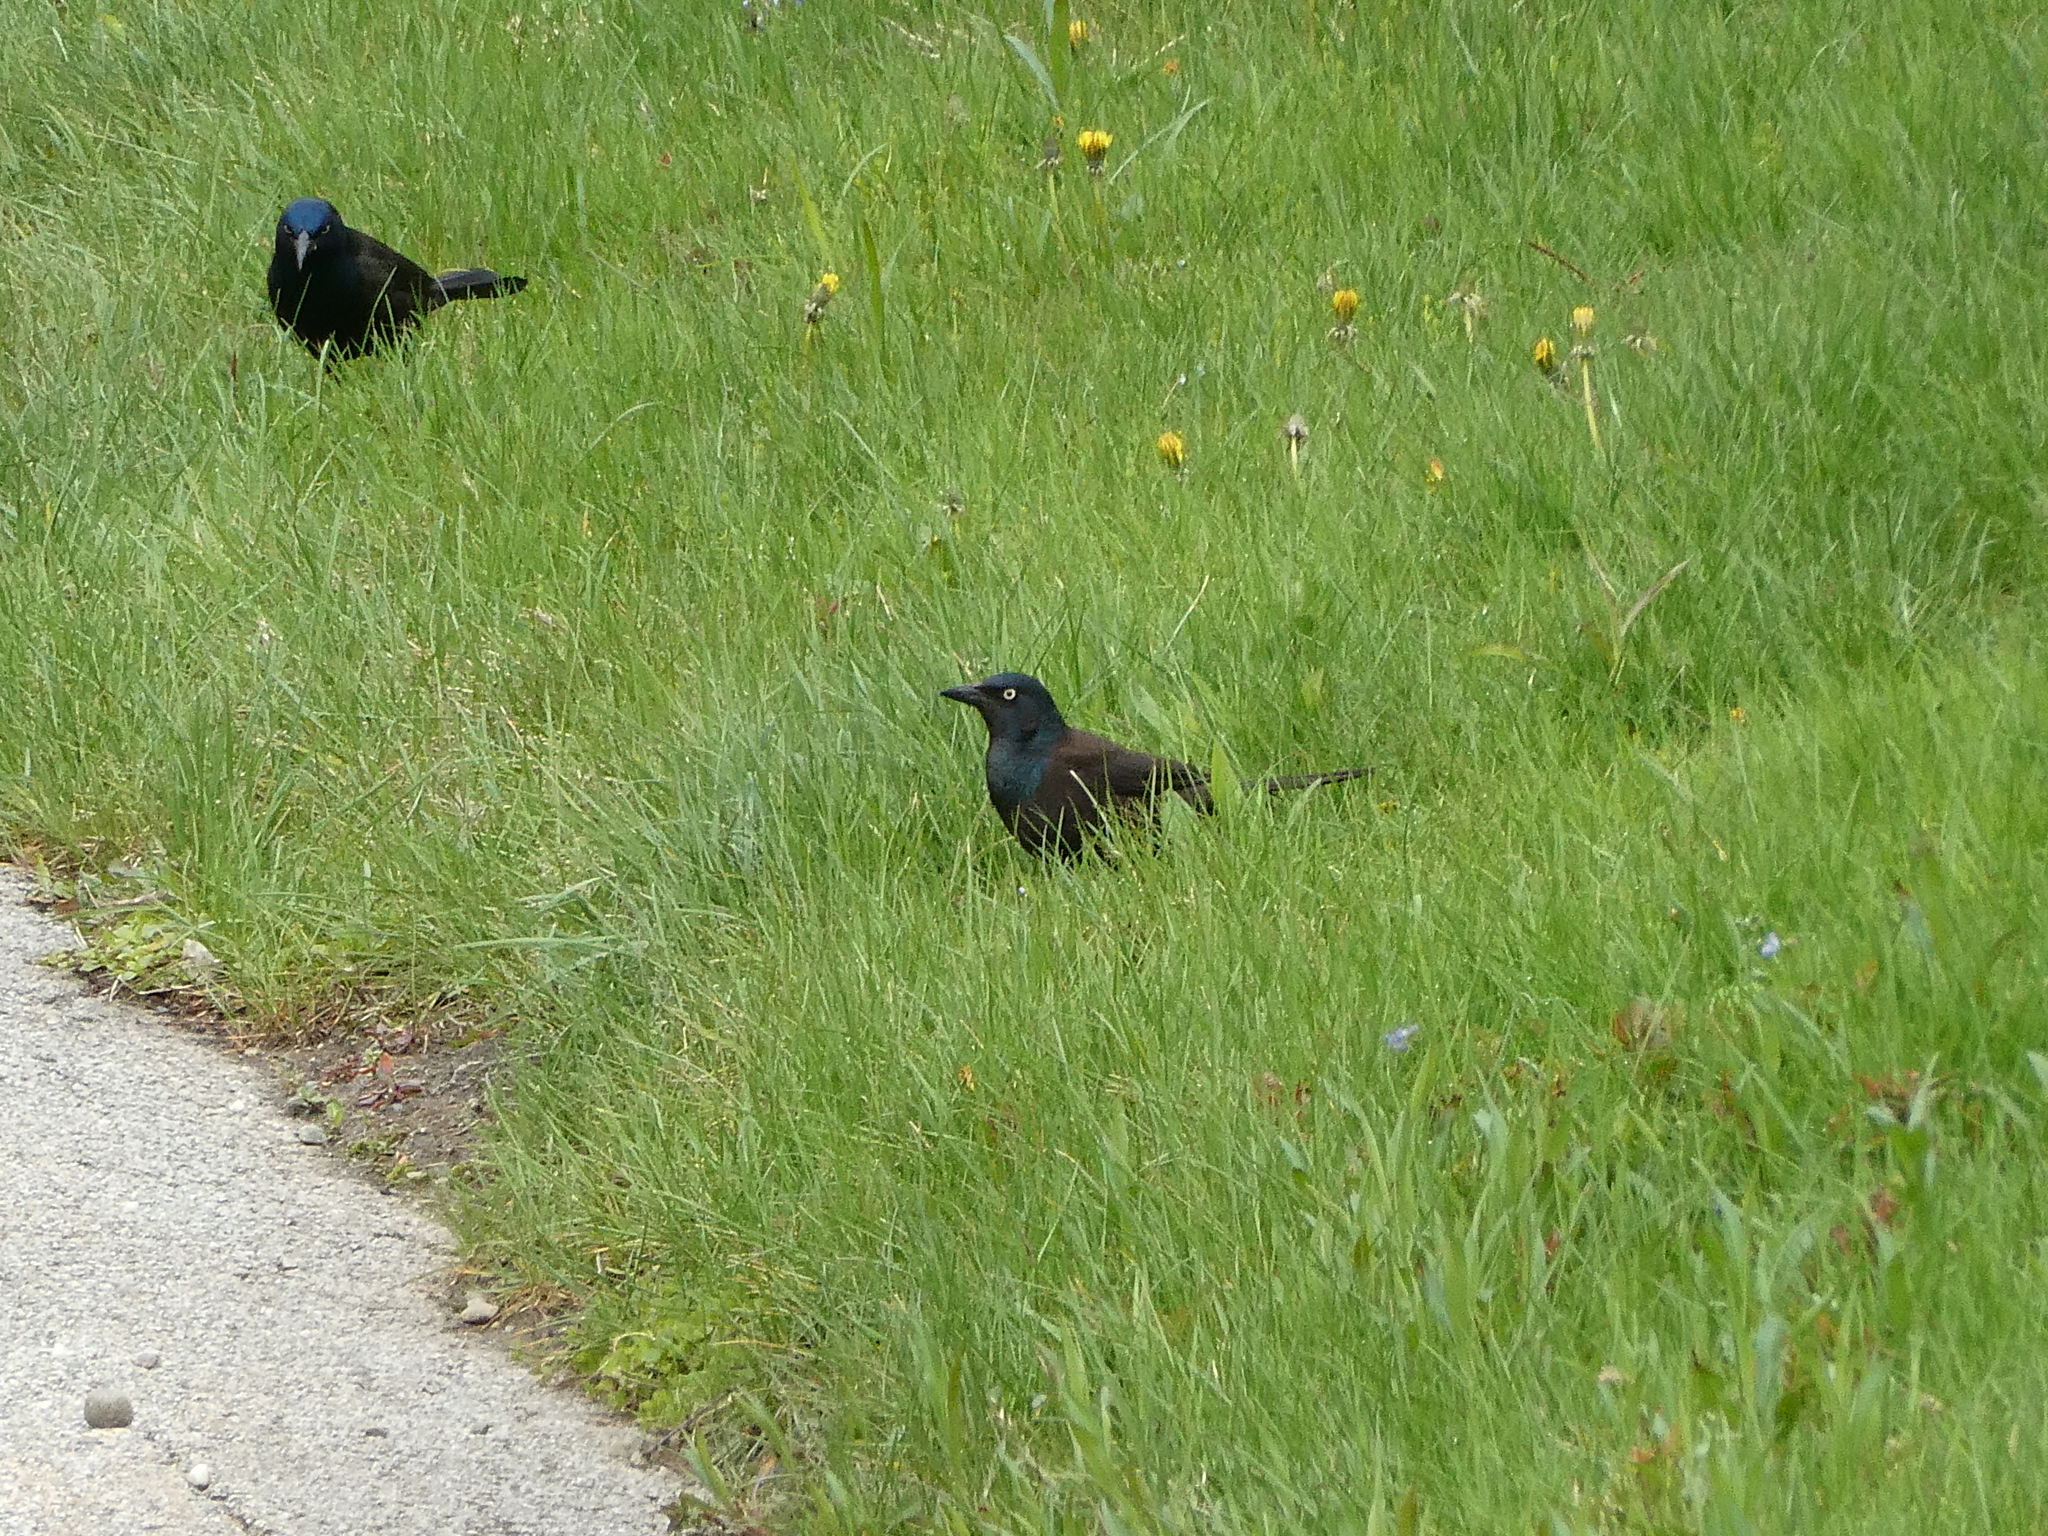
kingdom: Animalia
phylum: Chordata
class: Aves
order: Passeriformes
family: Icteridae
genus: Quiscalus
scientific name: Quiscalus quiscula
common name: Common grackle
